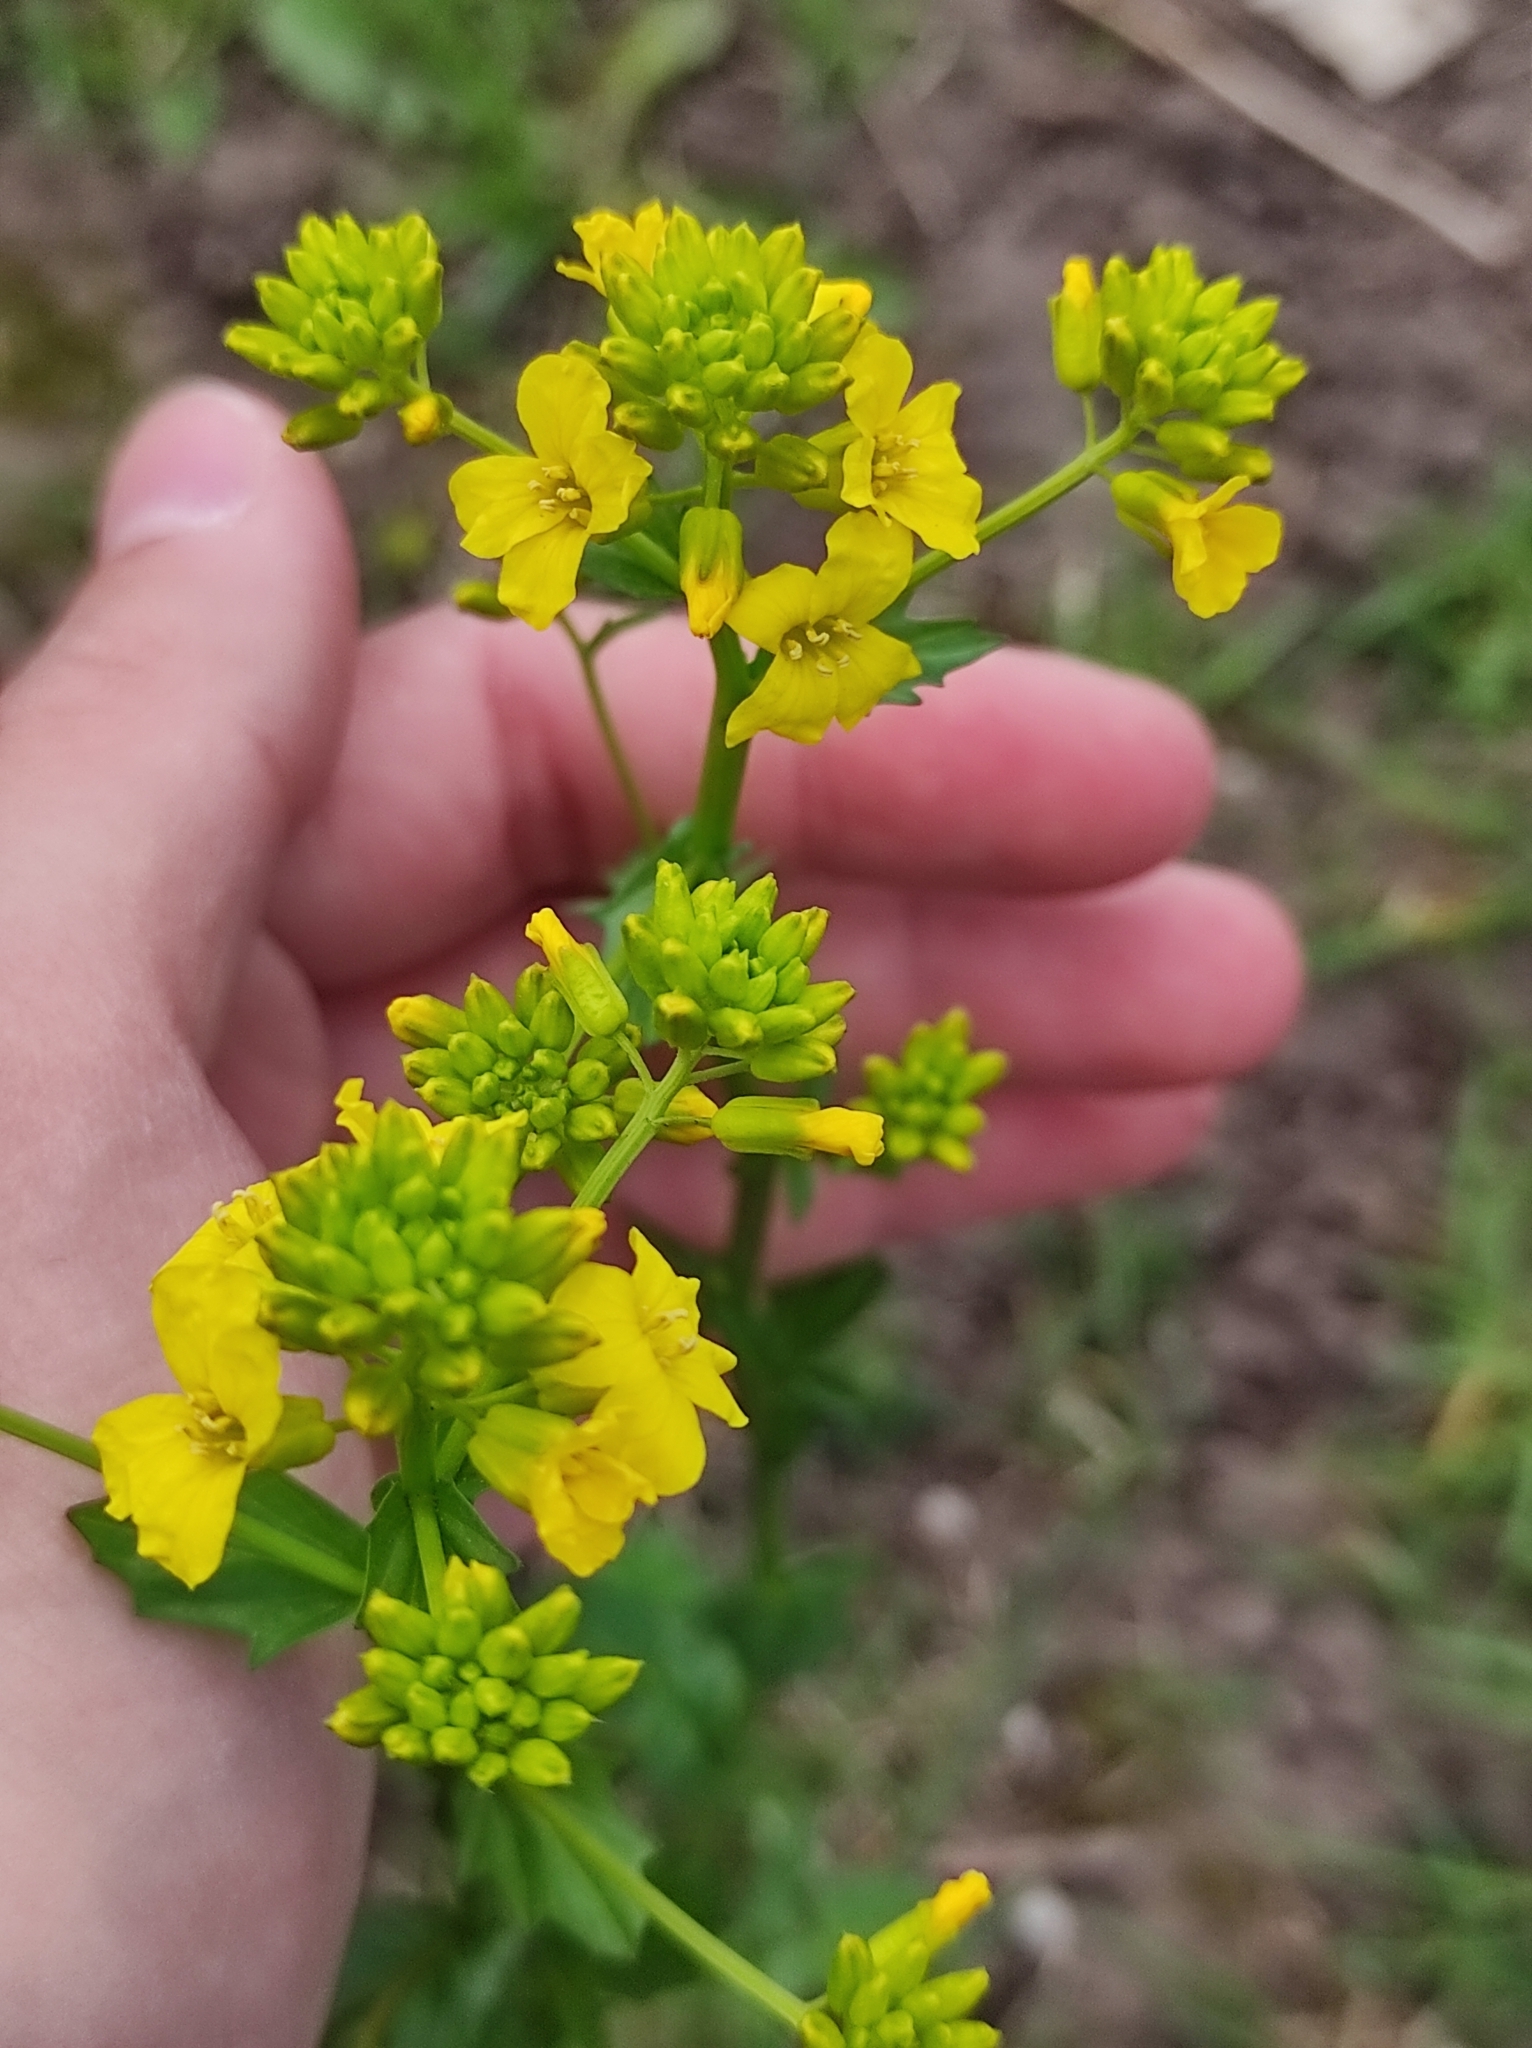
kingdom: Plantae
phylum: Tracheophyta
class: Magnoliopsida
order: Brassicales
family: Brassicaceae
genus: Barbarea
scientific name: Barbarea vulgaris
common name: Cressy-greens
